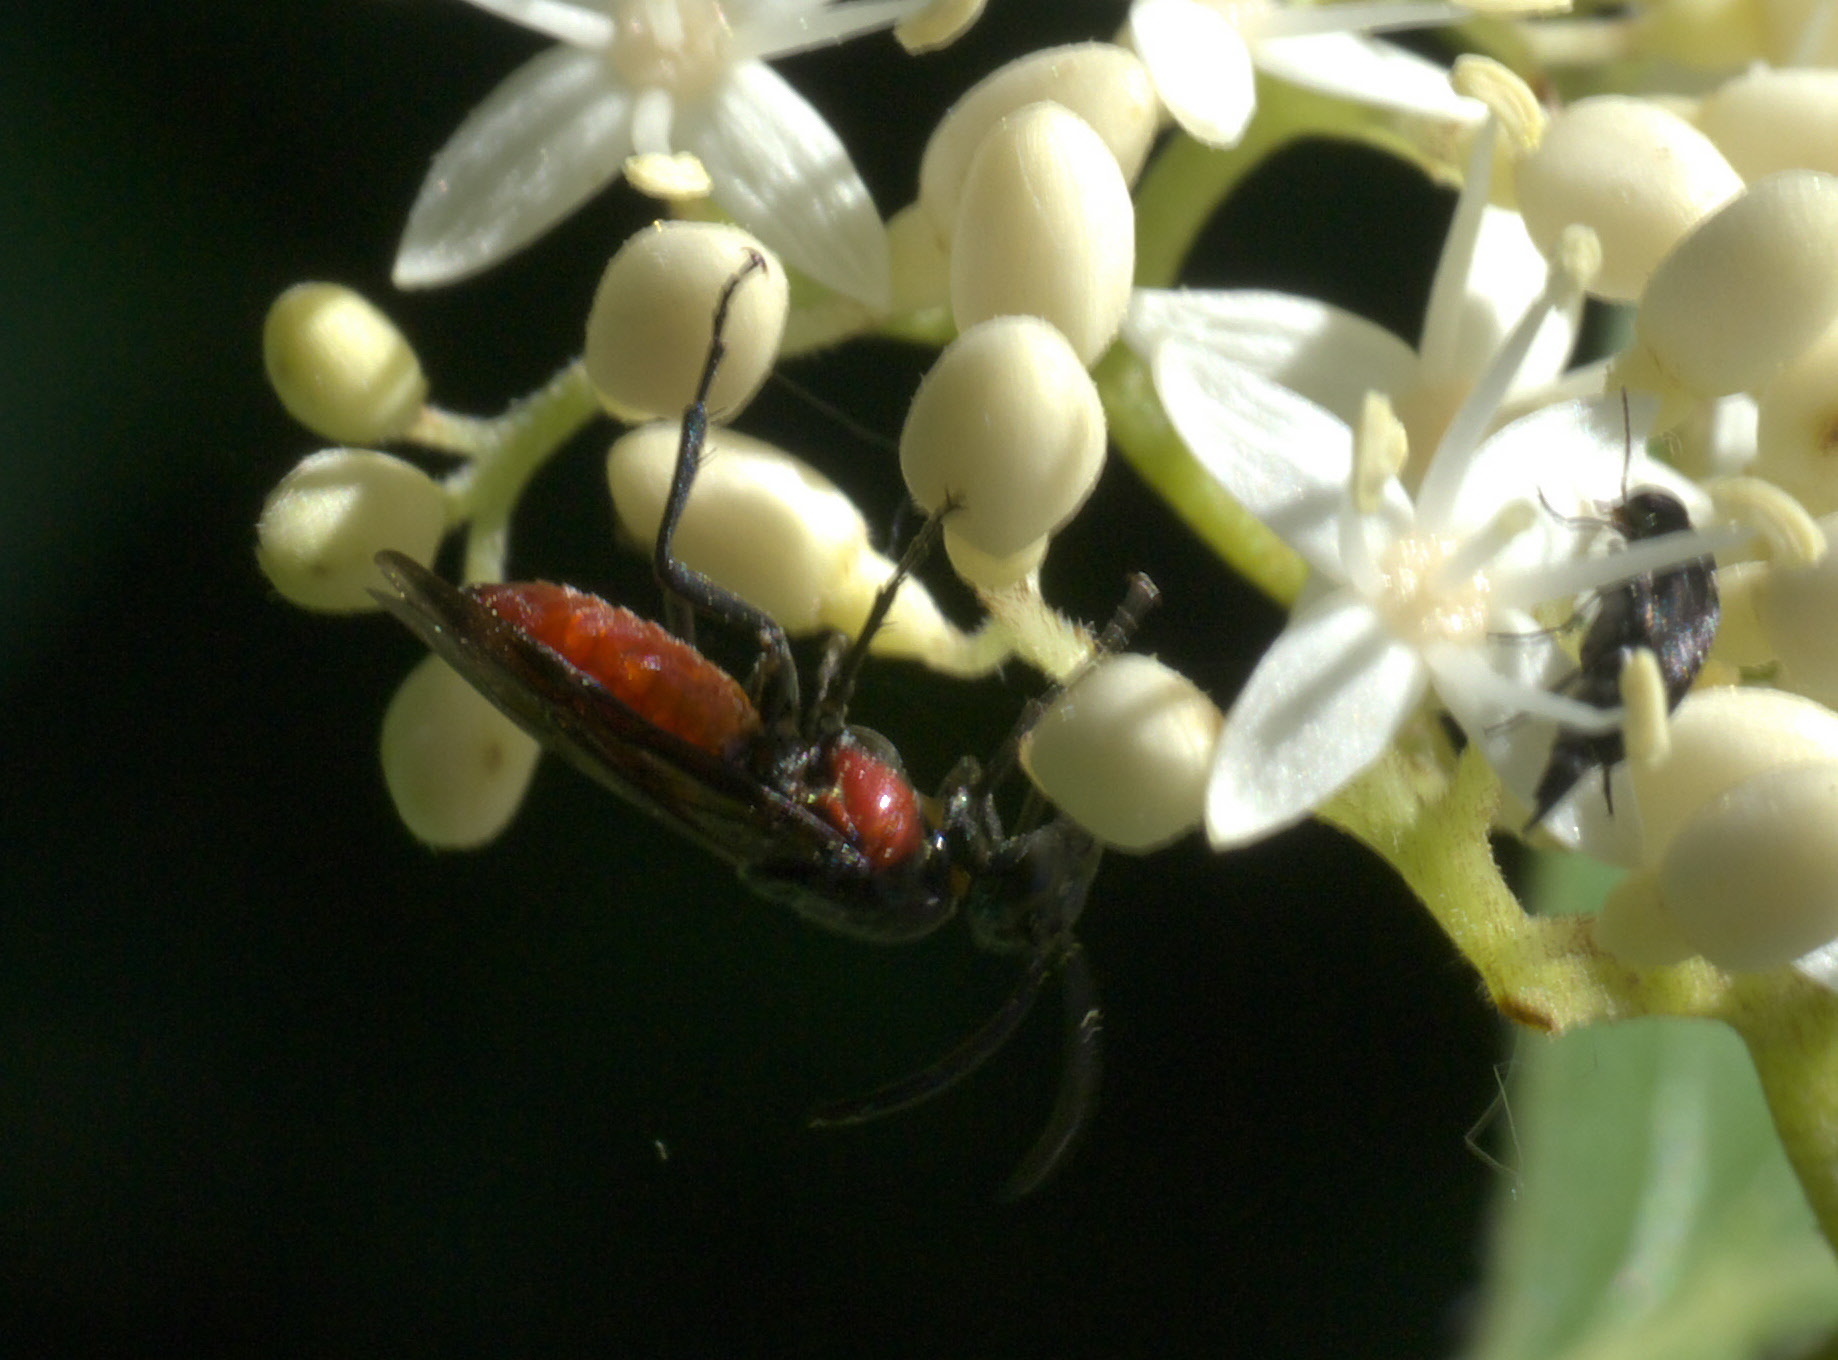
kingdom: Animalia
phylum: Arthropoda
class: Insecta
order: Hymenoptera
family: Argidae
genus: Arge
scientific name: Arge humeralis
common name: Poison ivy sawfly
